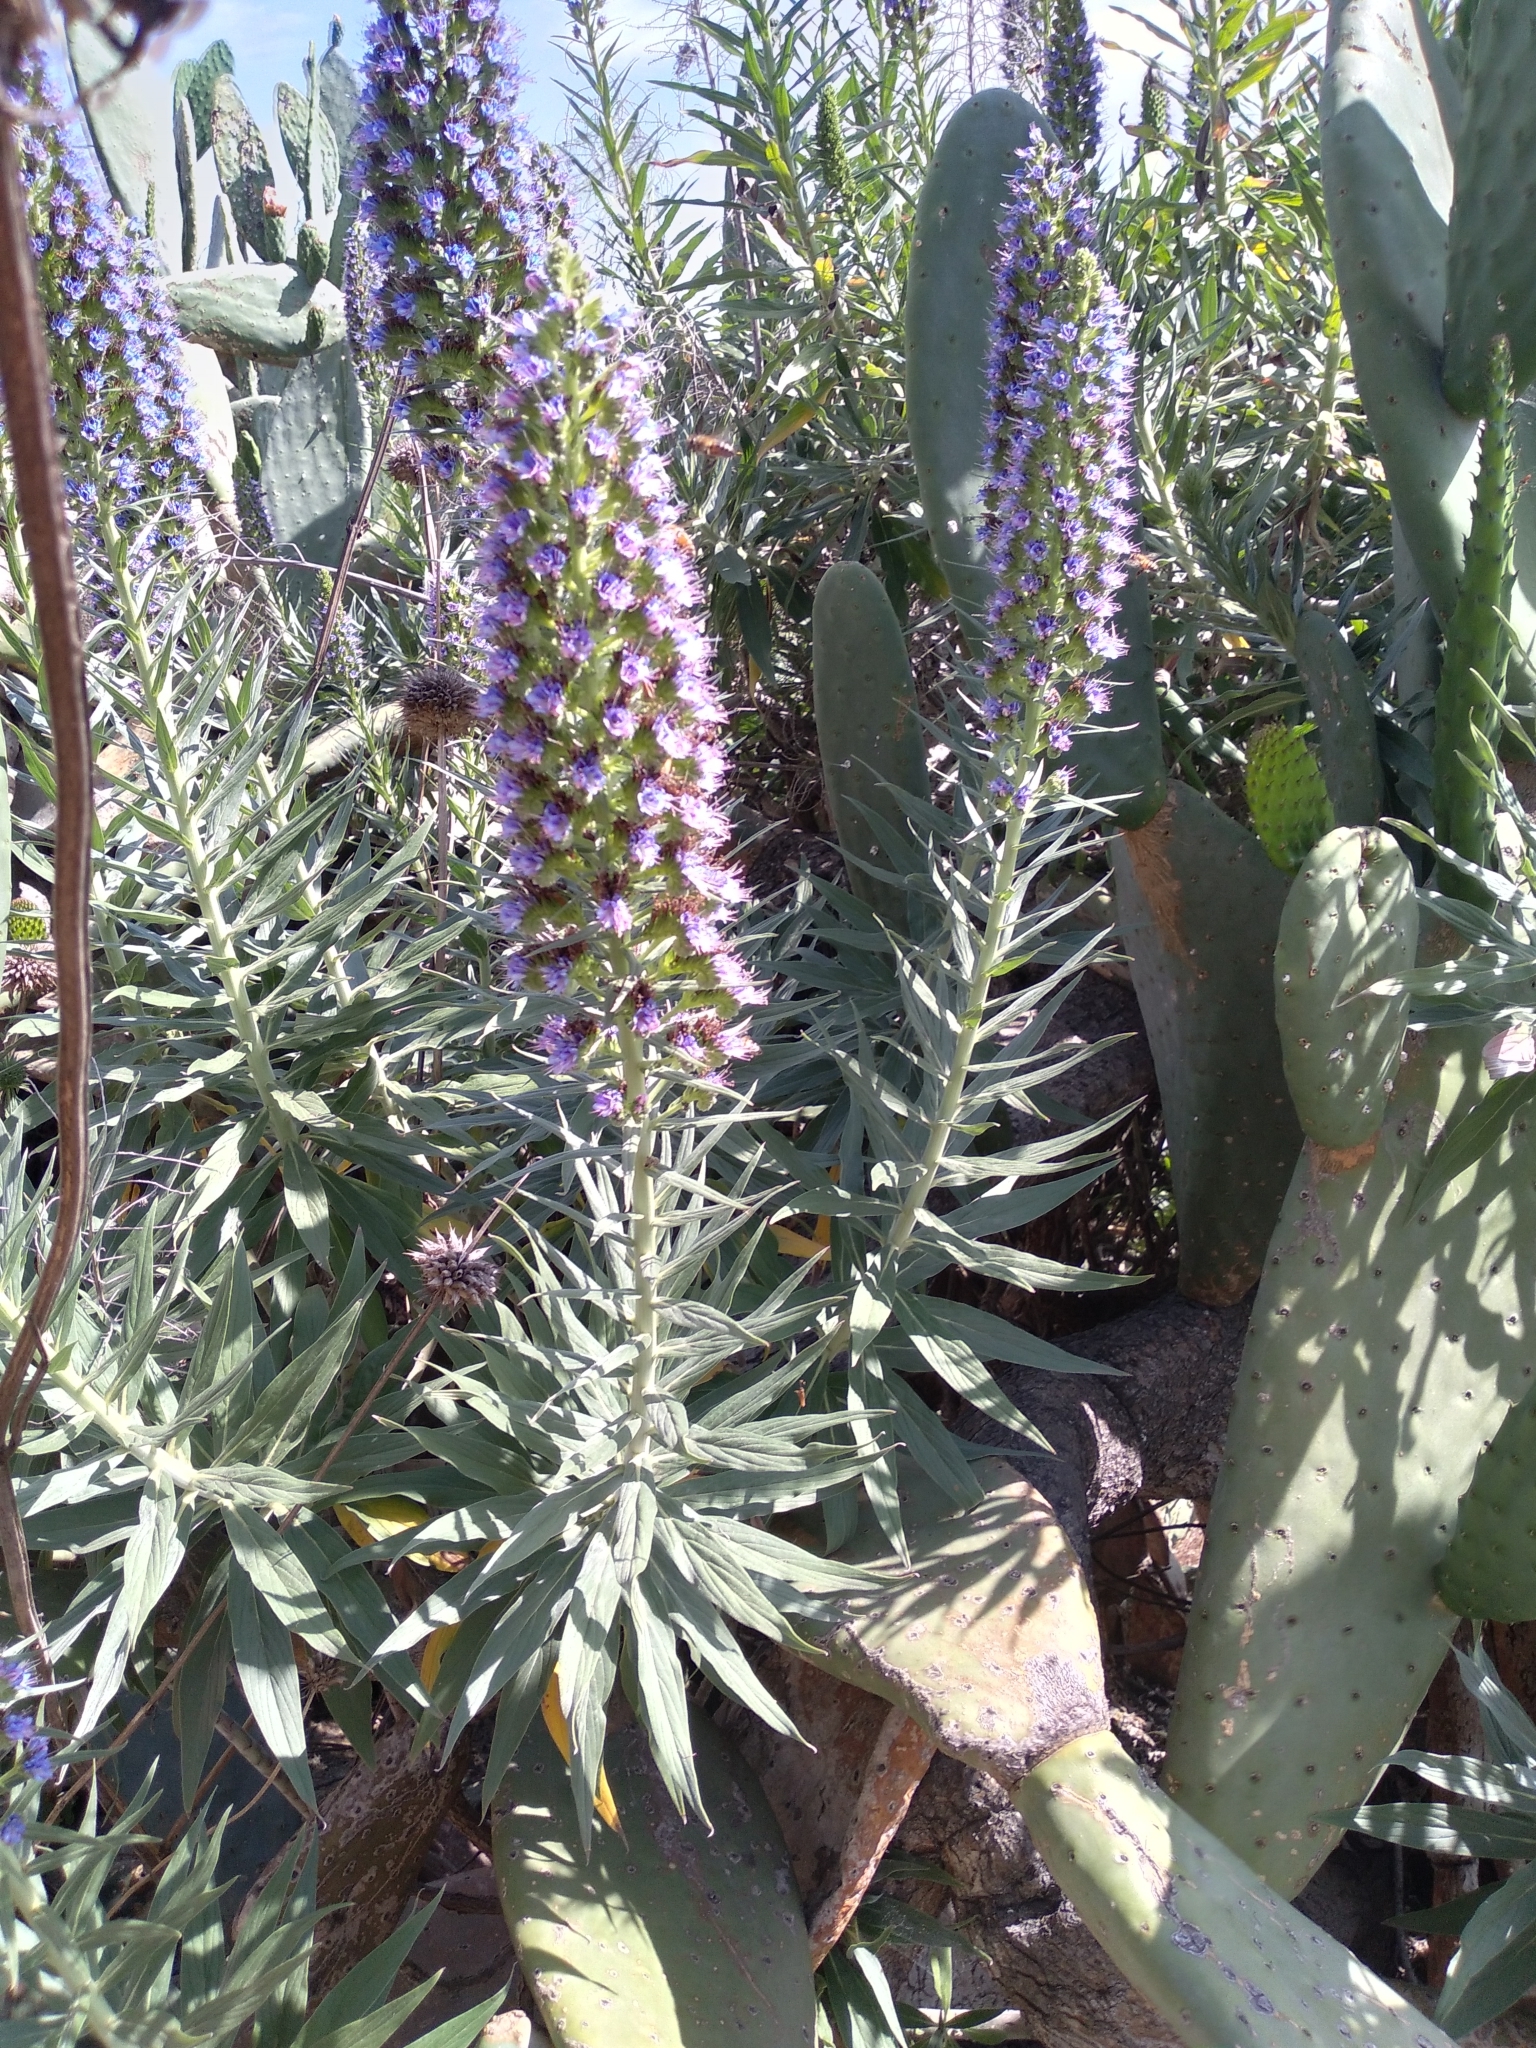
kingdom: Plantae
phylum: Tracheophyta
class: Magnoliopsida
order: Boraginales
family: Boraginaceae
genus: Echium
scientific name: Echium candicans
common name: Pride of madeira
